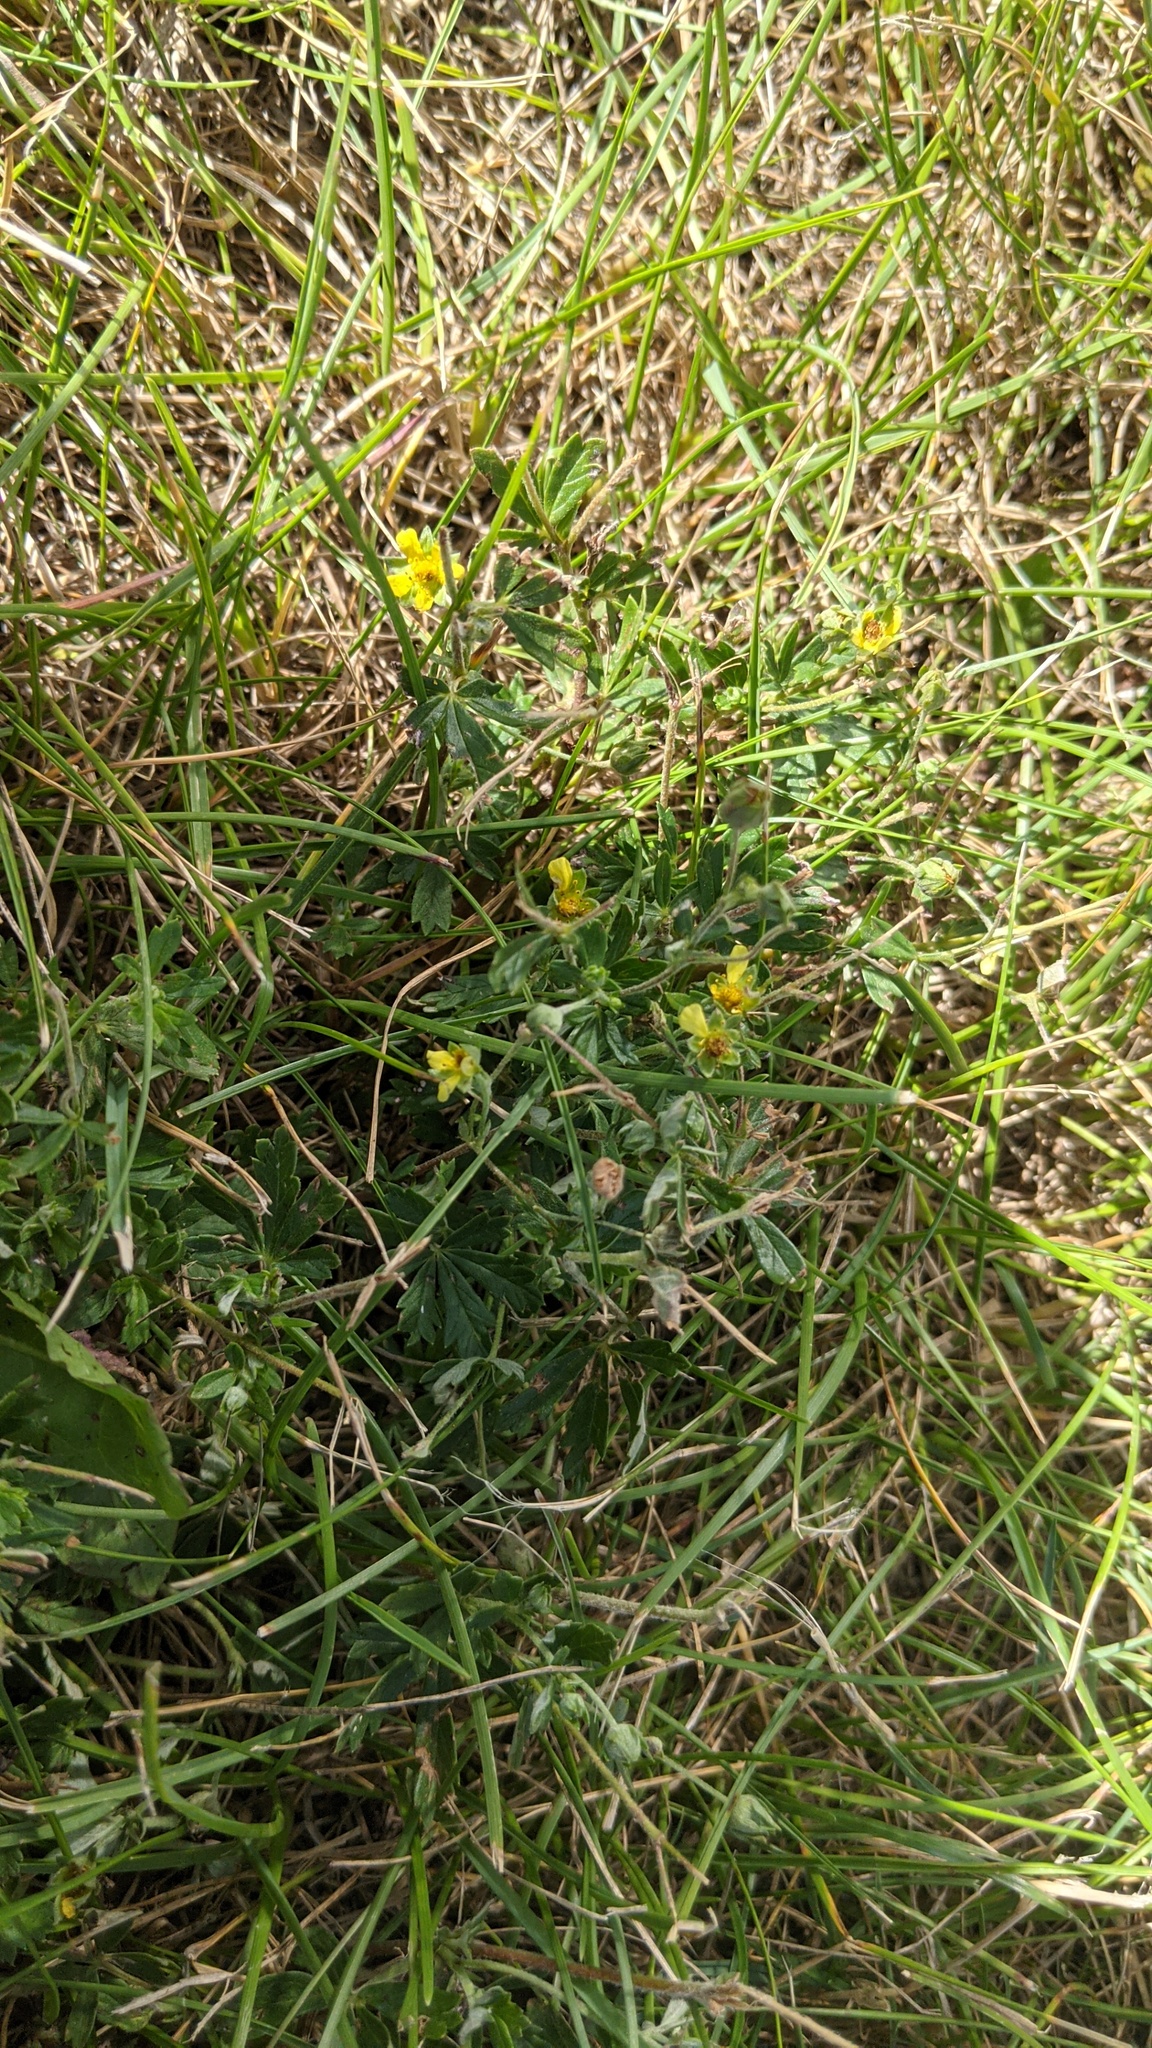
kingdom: Plantae
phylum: Tracheophyta
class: Magnoliopsida
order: Rosales
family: Rosaceae
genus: Potentilla
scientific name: Potentilla argentea
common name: Hoary cinquefoil
